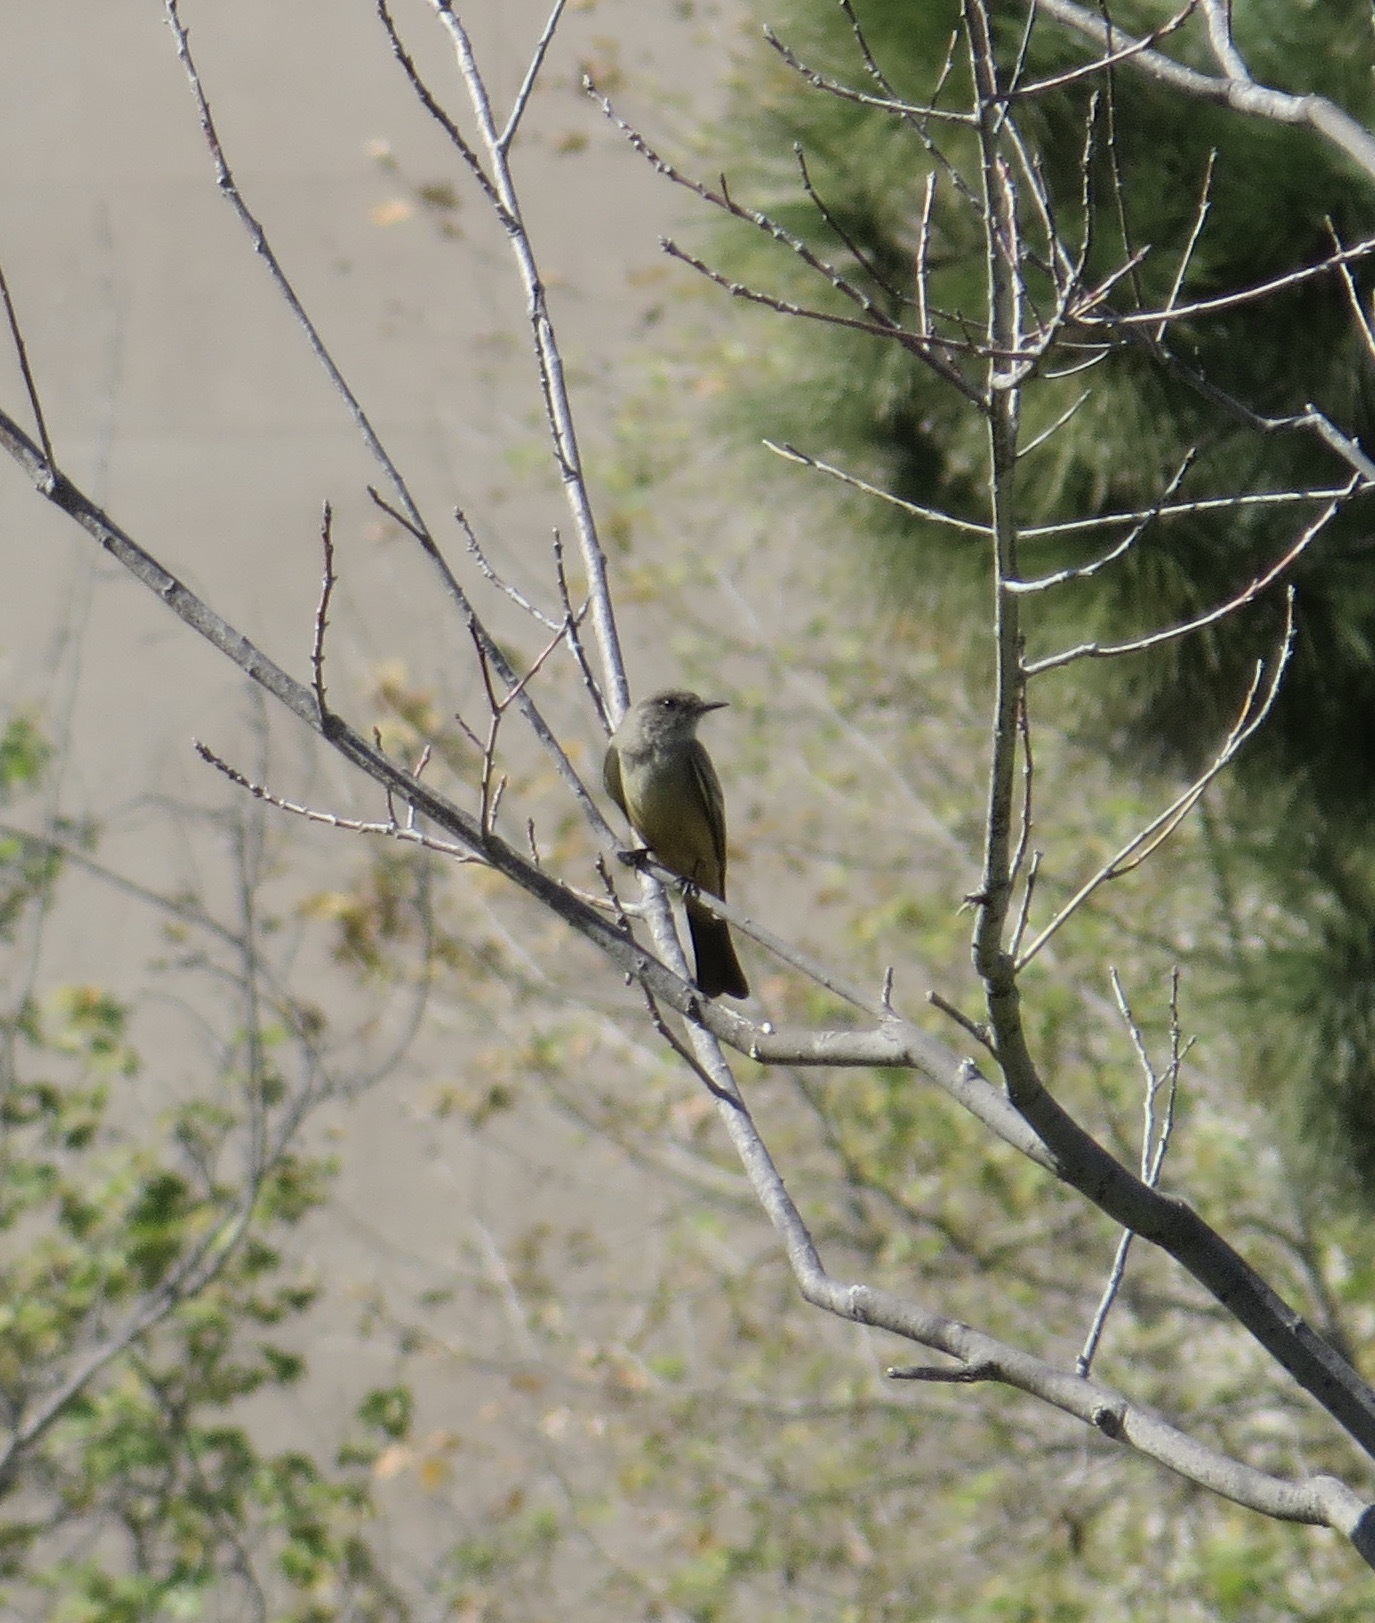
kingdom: Animalia
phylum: Chordata
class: Aves
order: Passeriformes
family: Tyrannidae
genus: Sayornis
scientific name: Sayornis saya
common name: Say's phoebe
